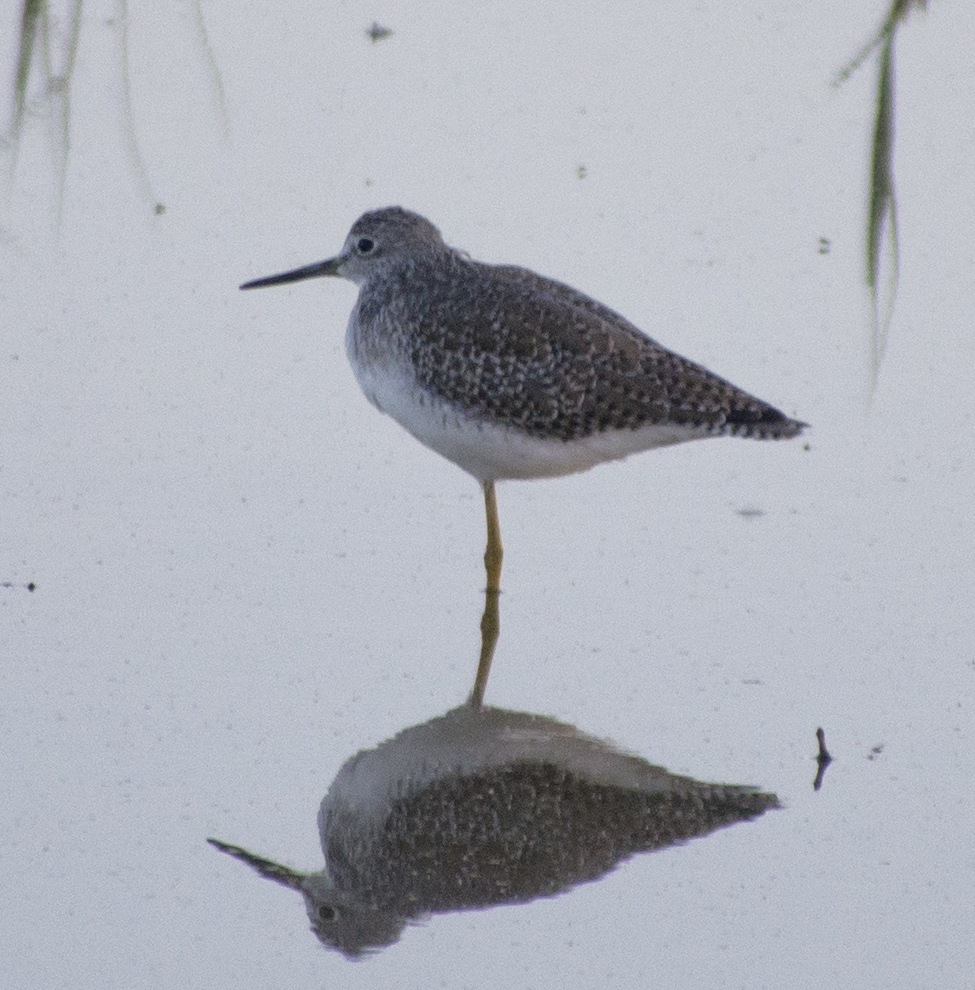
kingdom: Animalia
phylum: Chordata
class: Aves
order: Charadriiformes
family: Scolopacidae
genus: Tringa
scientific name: Tringa melanoleuca
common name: Greater yellowlegs
